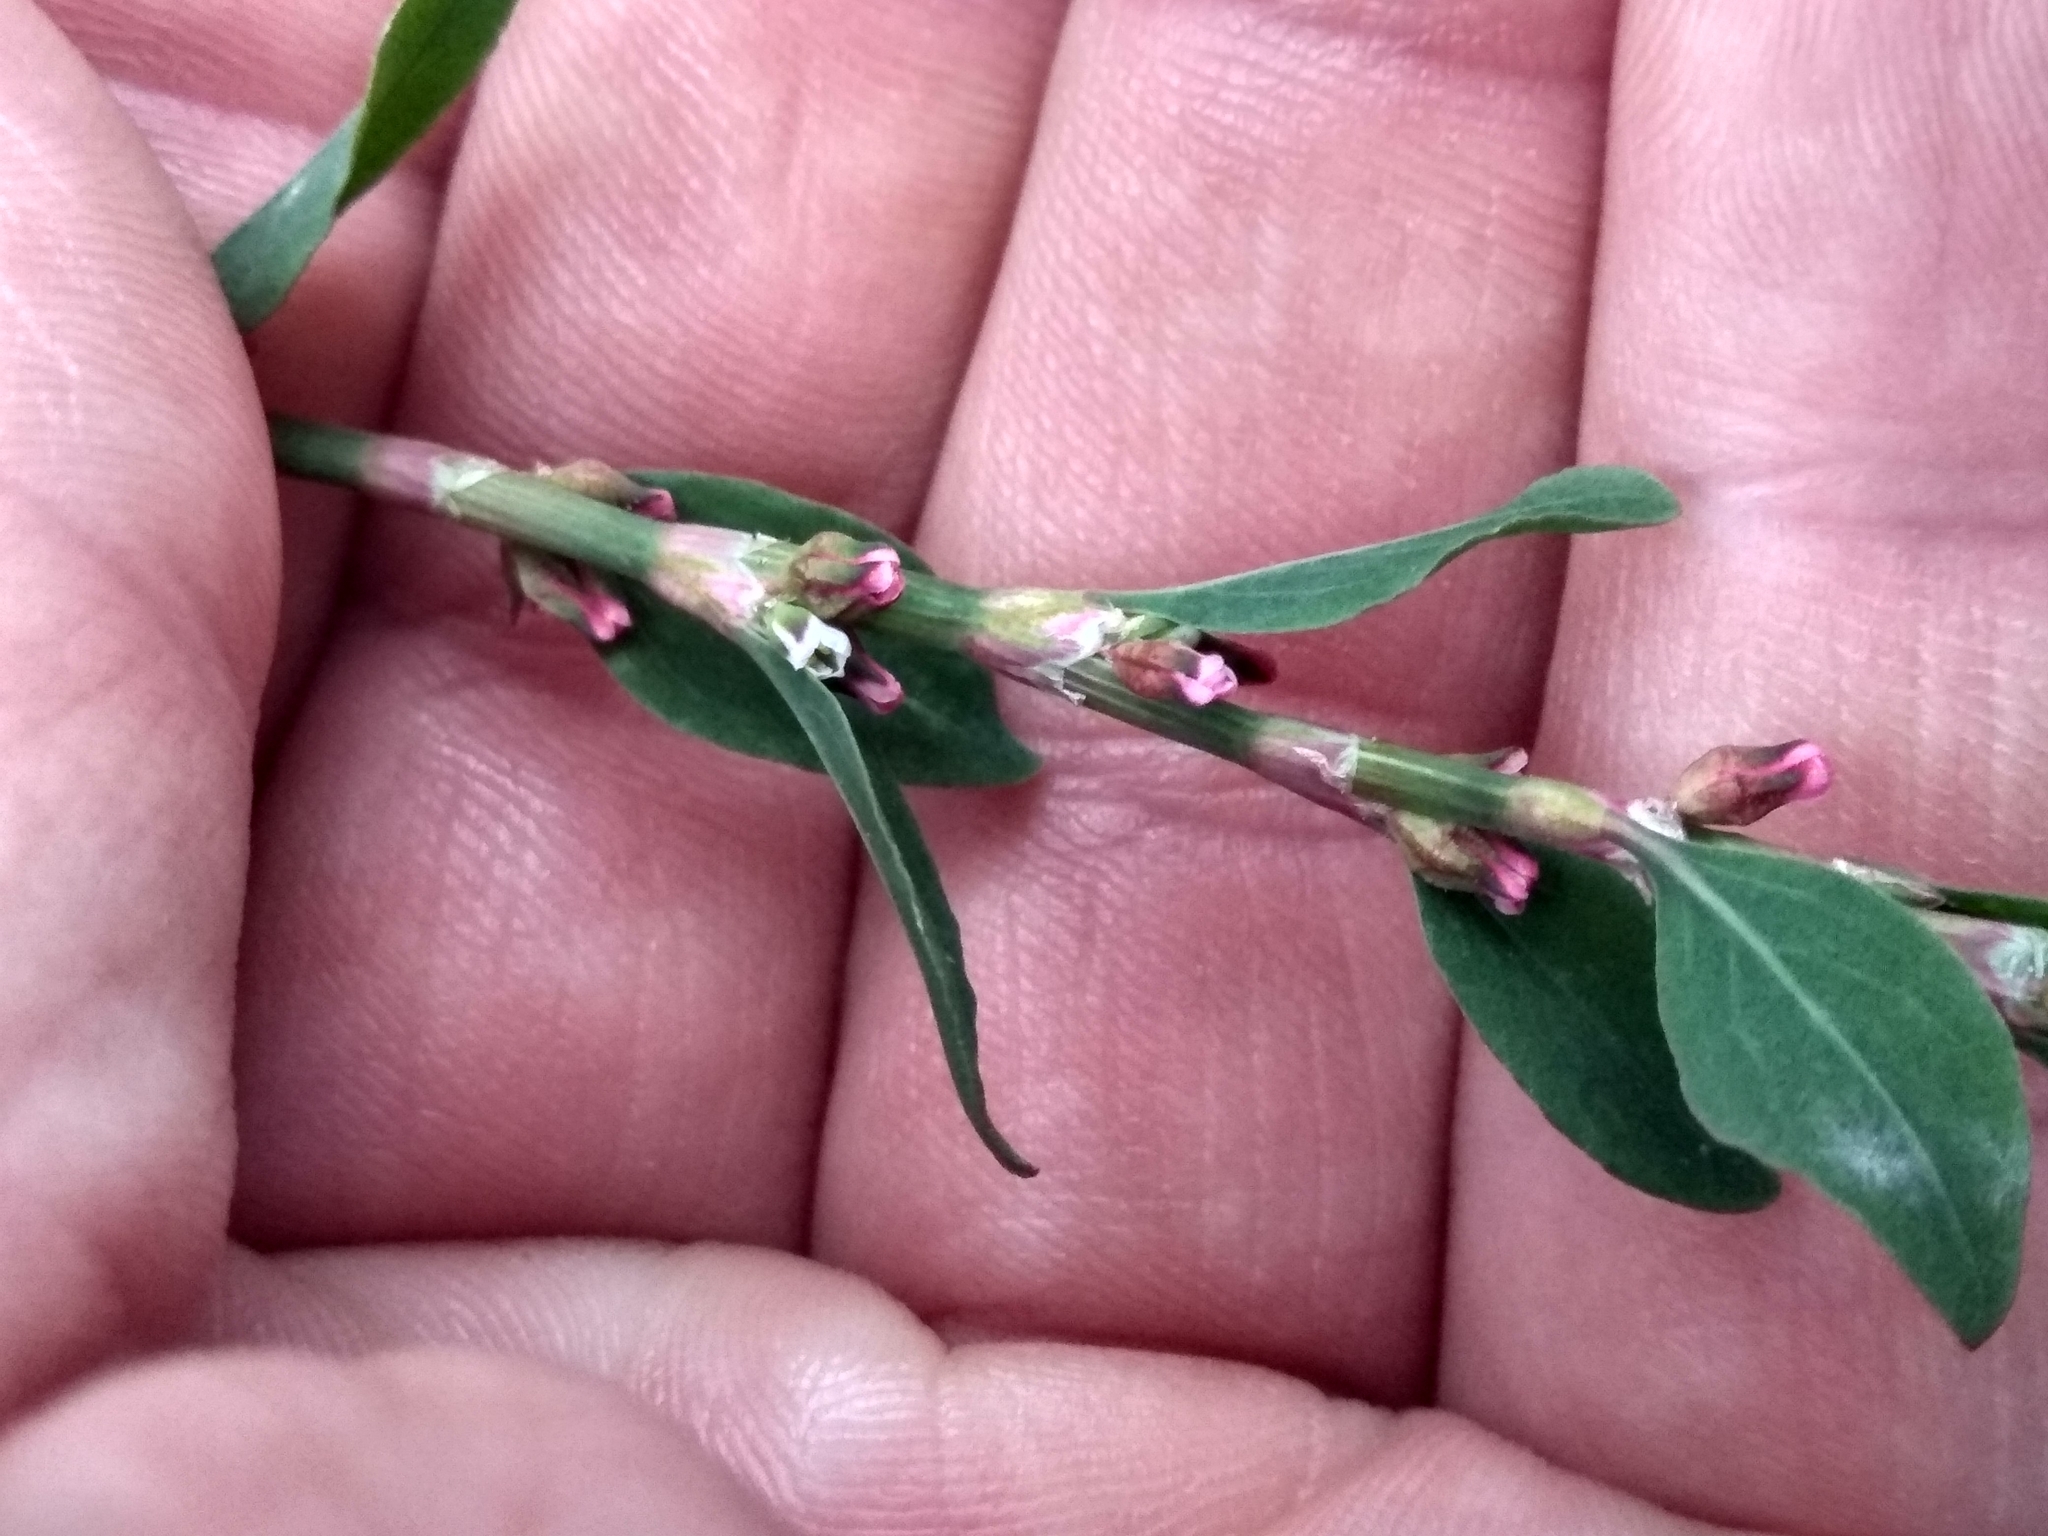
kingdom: Plantae
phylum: Tracheophyta
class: Magnoliopsida
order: Caryophyllales
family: Polygonaceae
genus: Polygonum
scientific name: Polygonum
